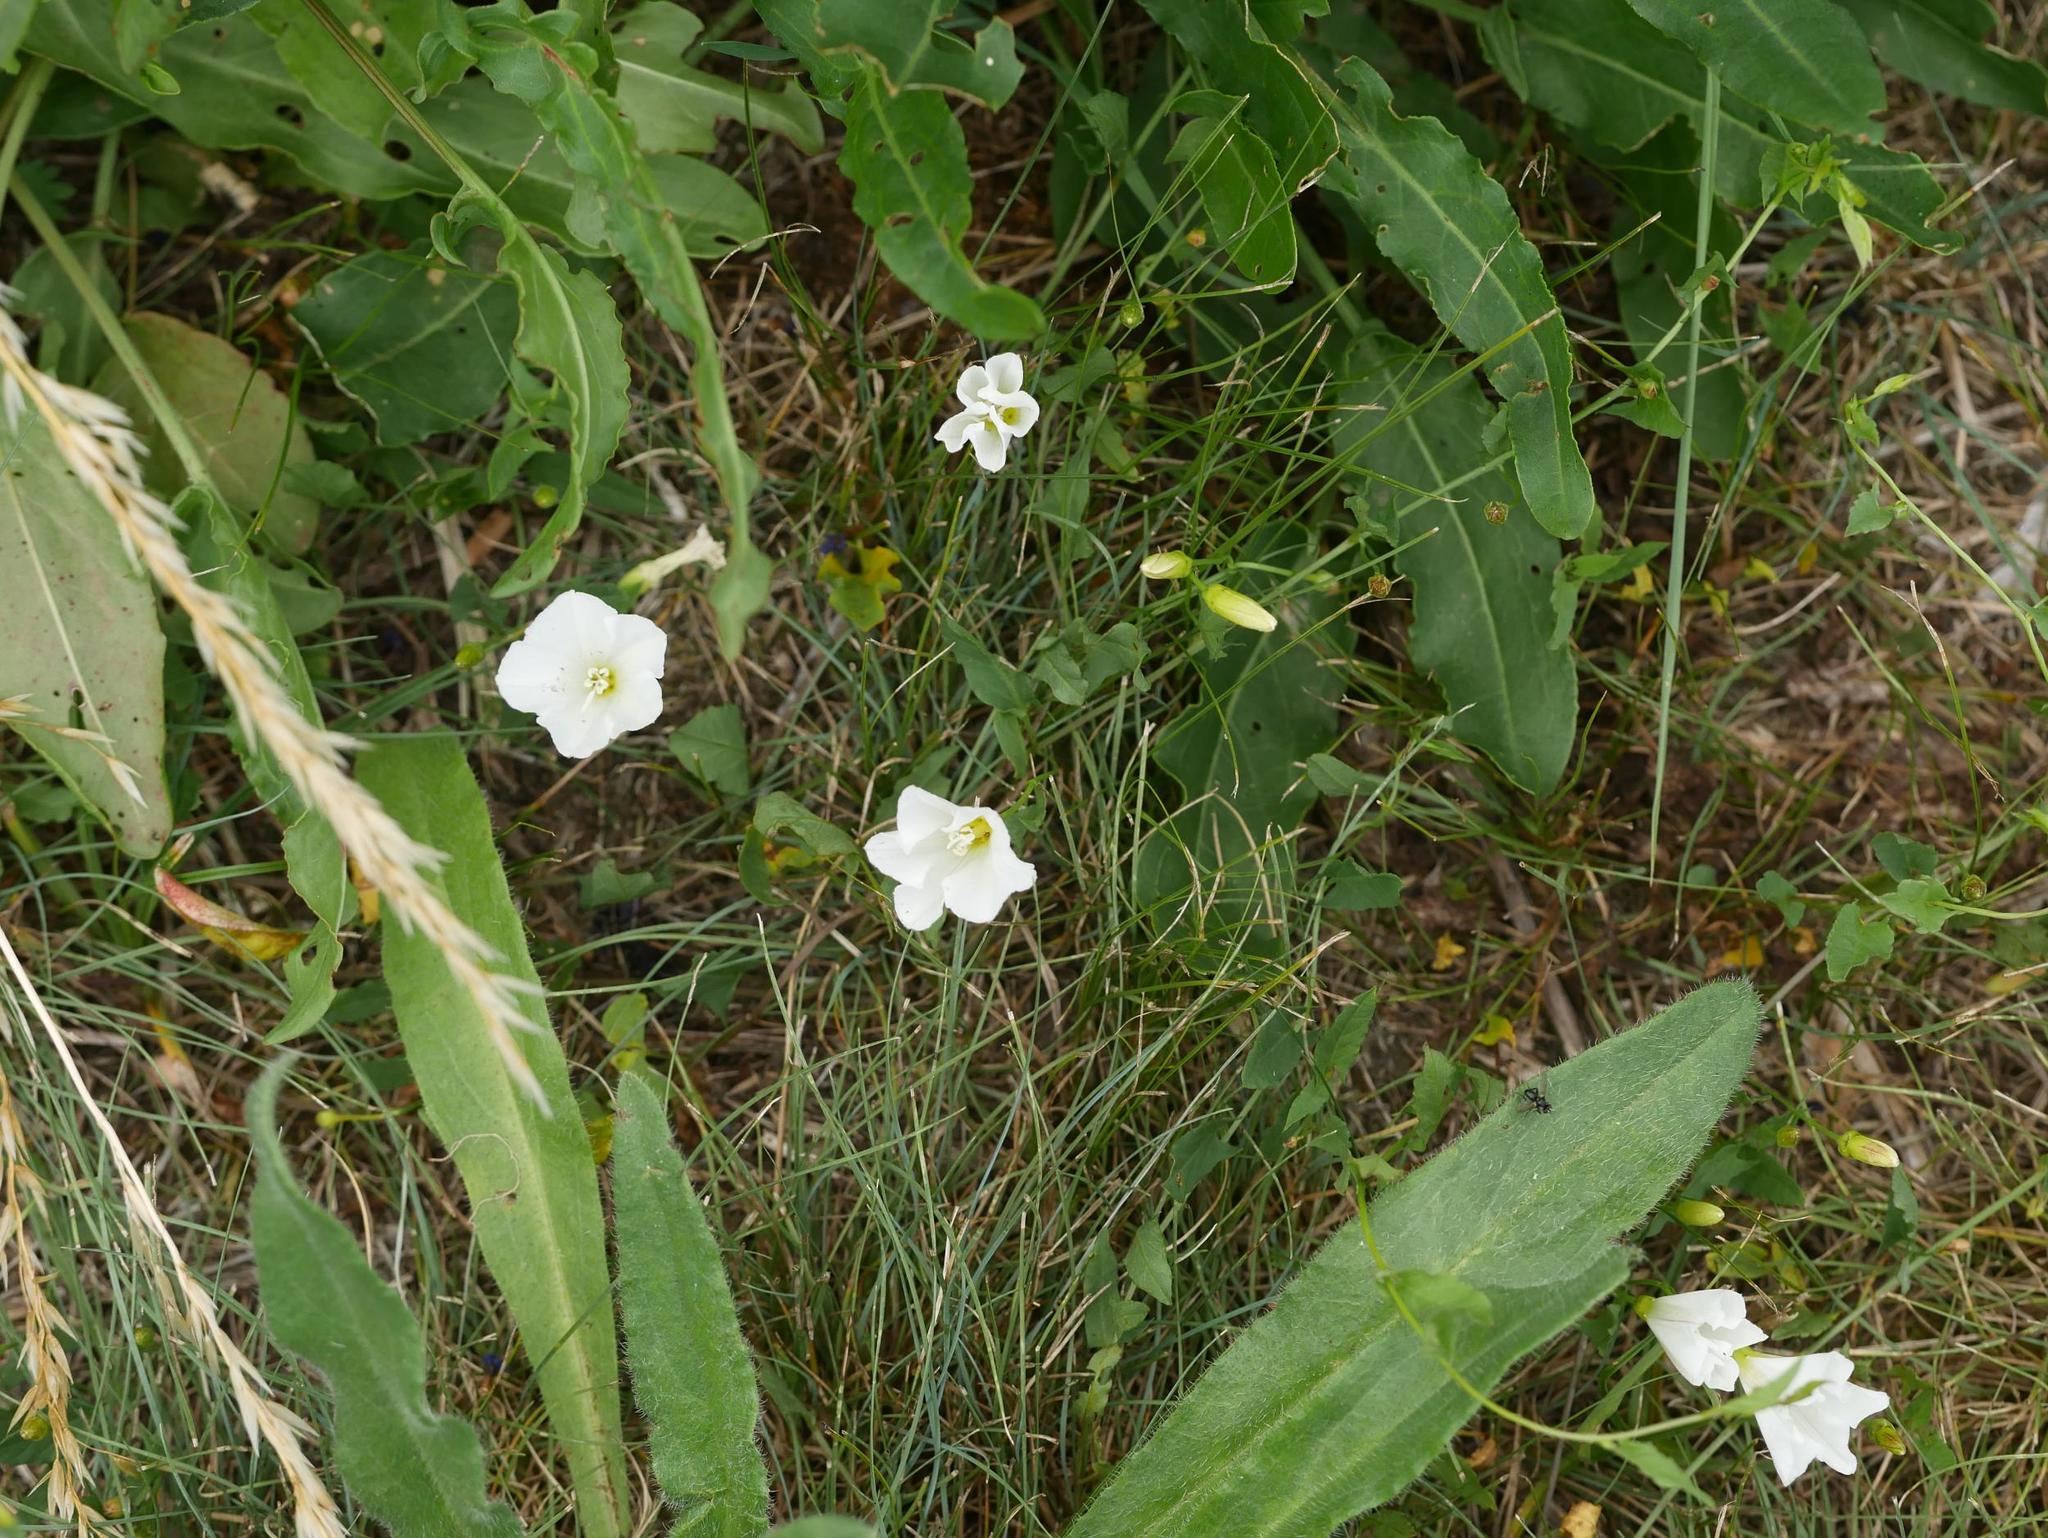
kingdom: Plantae
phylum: Tracheophyta
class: Magnoliopsida
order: Solanales
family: Convolvulaceae
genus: Convolvulus
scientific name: Convolvulus arvensis
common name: Field bindweed
